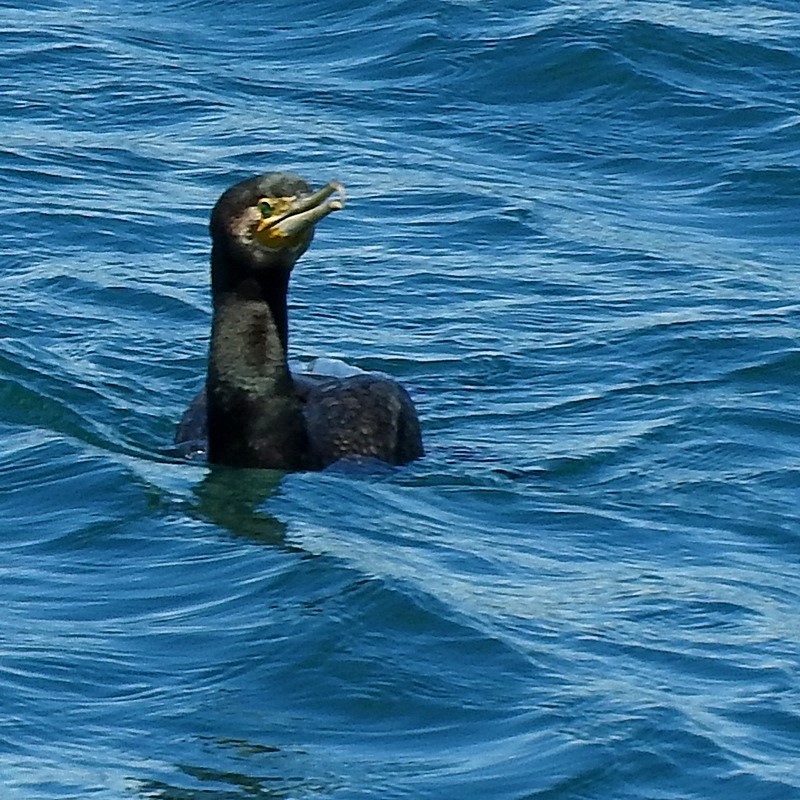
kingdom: Animalia
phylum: Chordata
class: Aves
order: Suliformes
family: Phalacrocoracidae
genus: Phalacrocorax
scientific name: Phalacrocorax carbo
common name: Great cormorant
